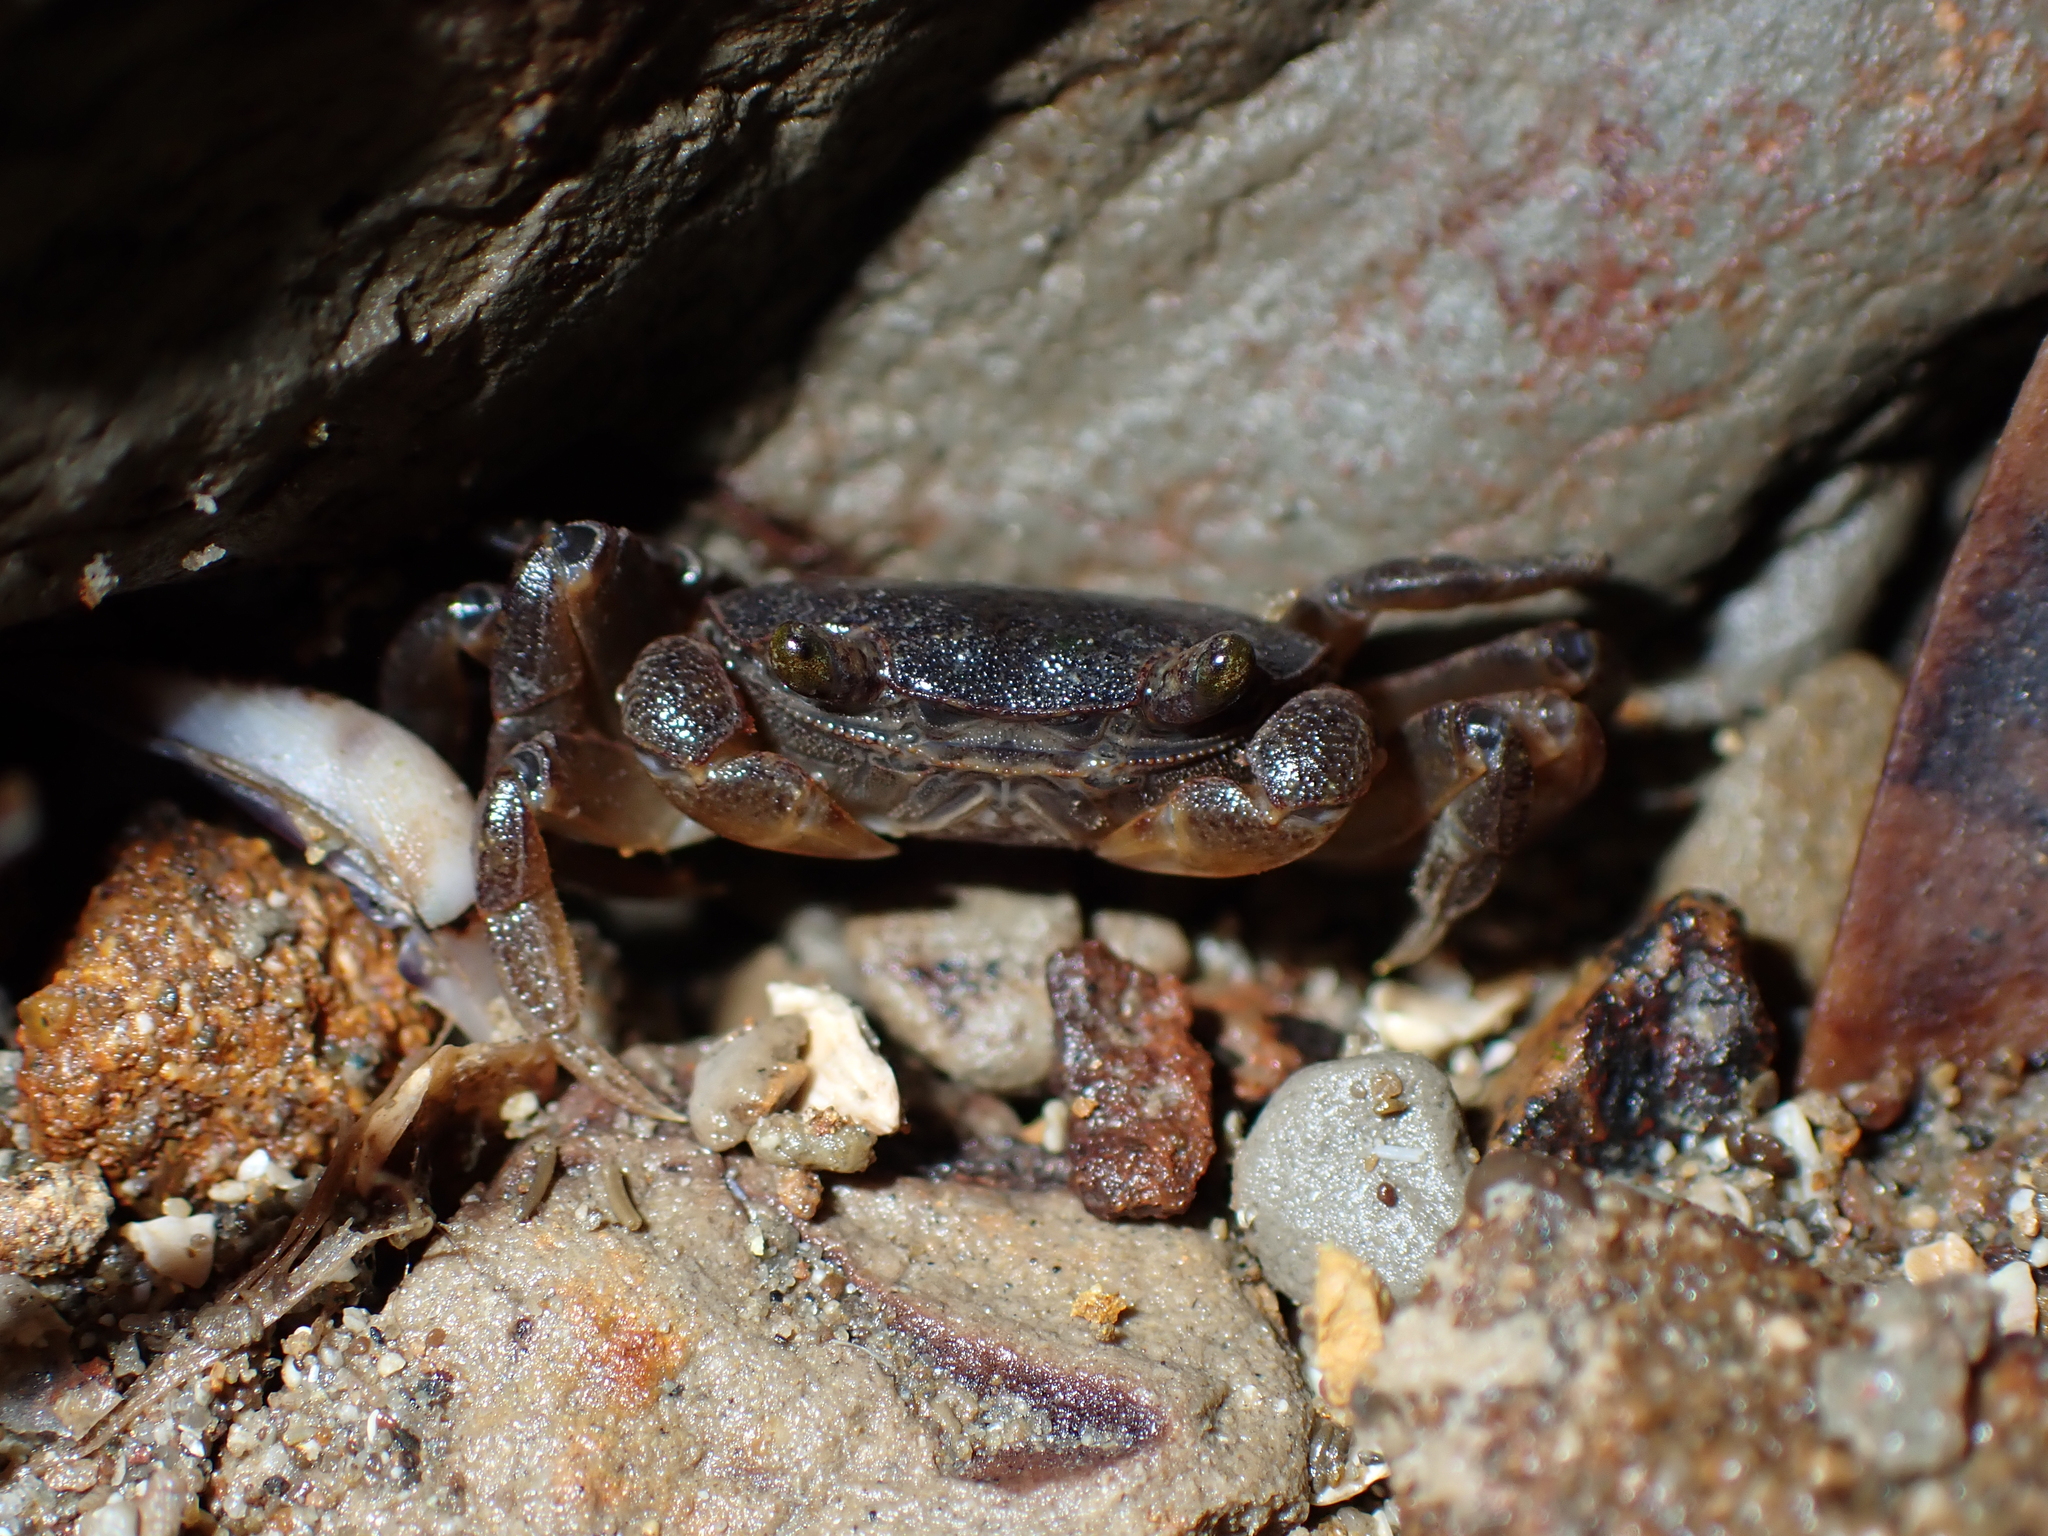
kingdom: Animalia
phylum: Arthropoda
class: Malacostraca
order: Decapoda
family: Varunidae
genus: Cyclograpsus
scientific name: Cyclograpsus lavauxi
